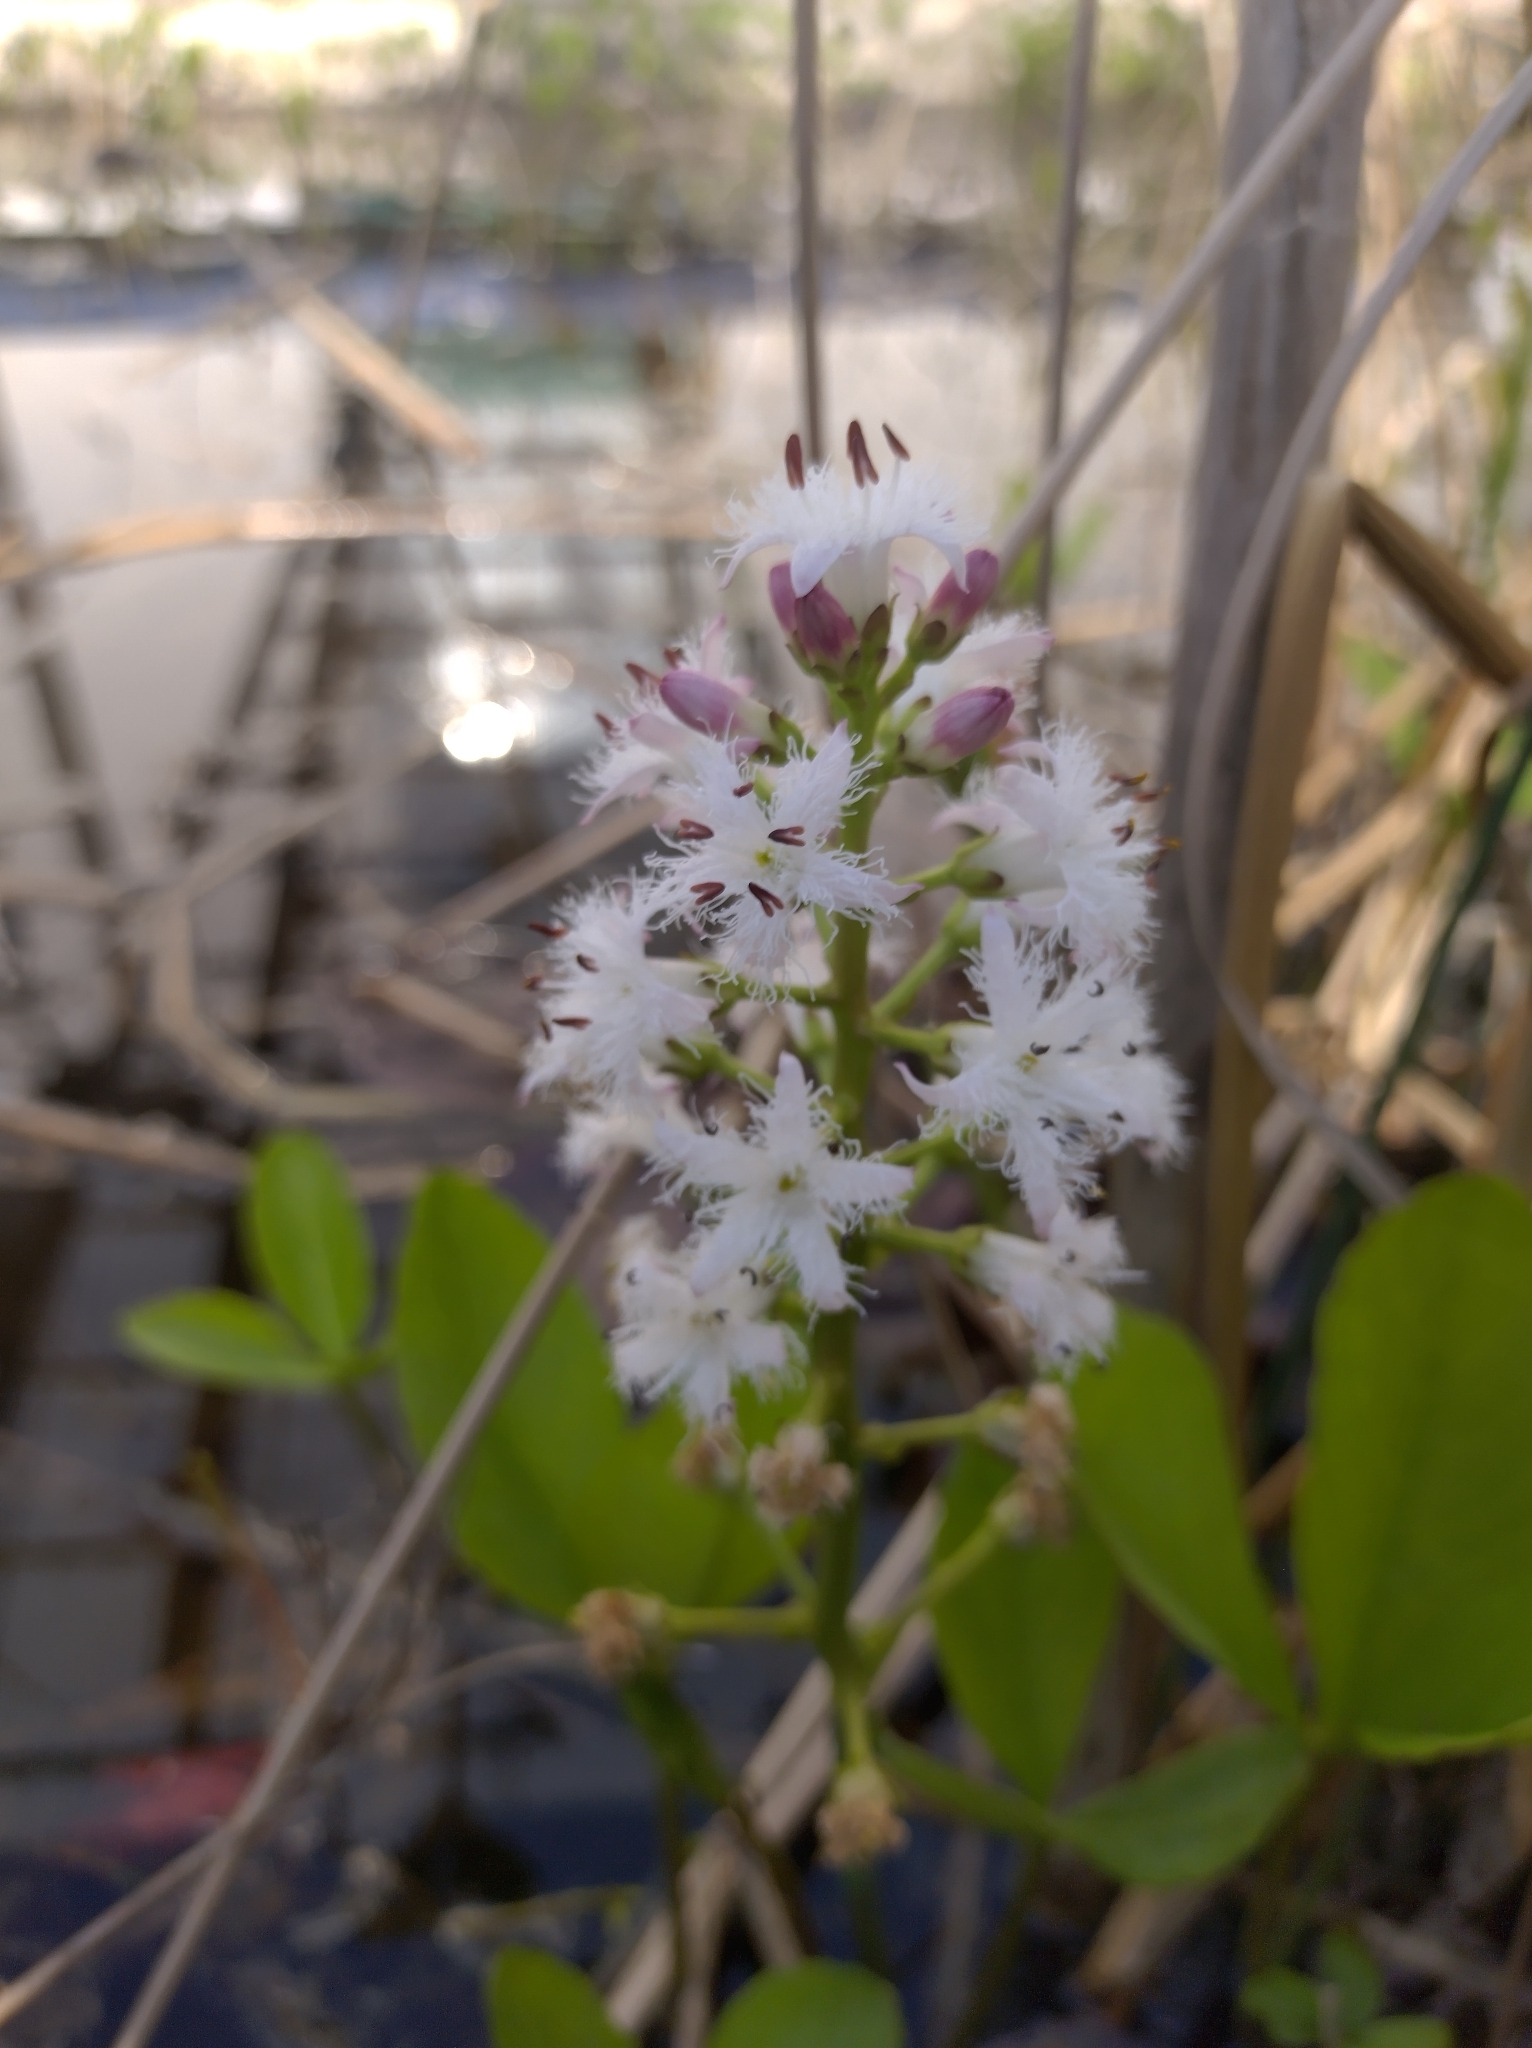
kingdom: Plantae
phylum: Tracheophyta
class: Magnoliopsida
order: Asterales
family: Menyanthaceae
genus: Menyanthes
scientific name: Menyanthes trifoliata
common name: Bogbean
